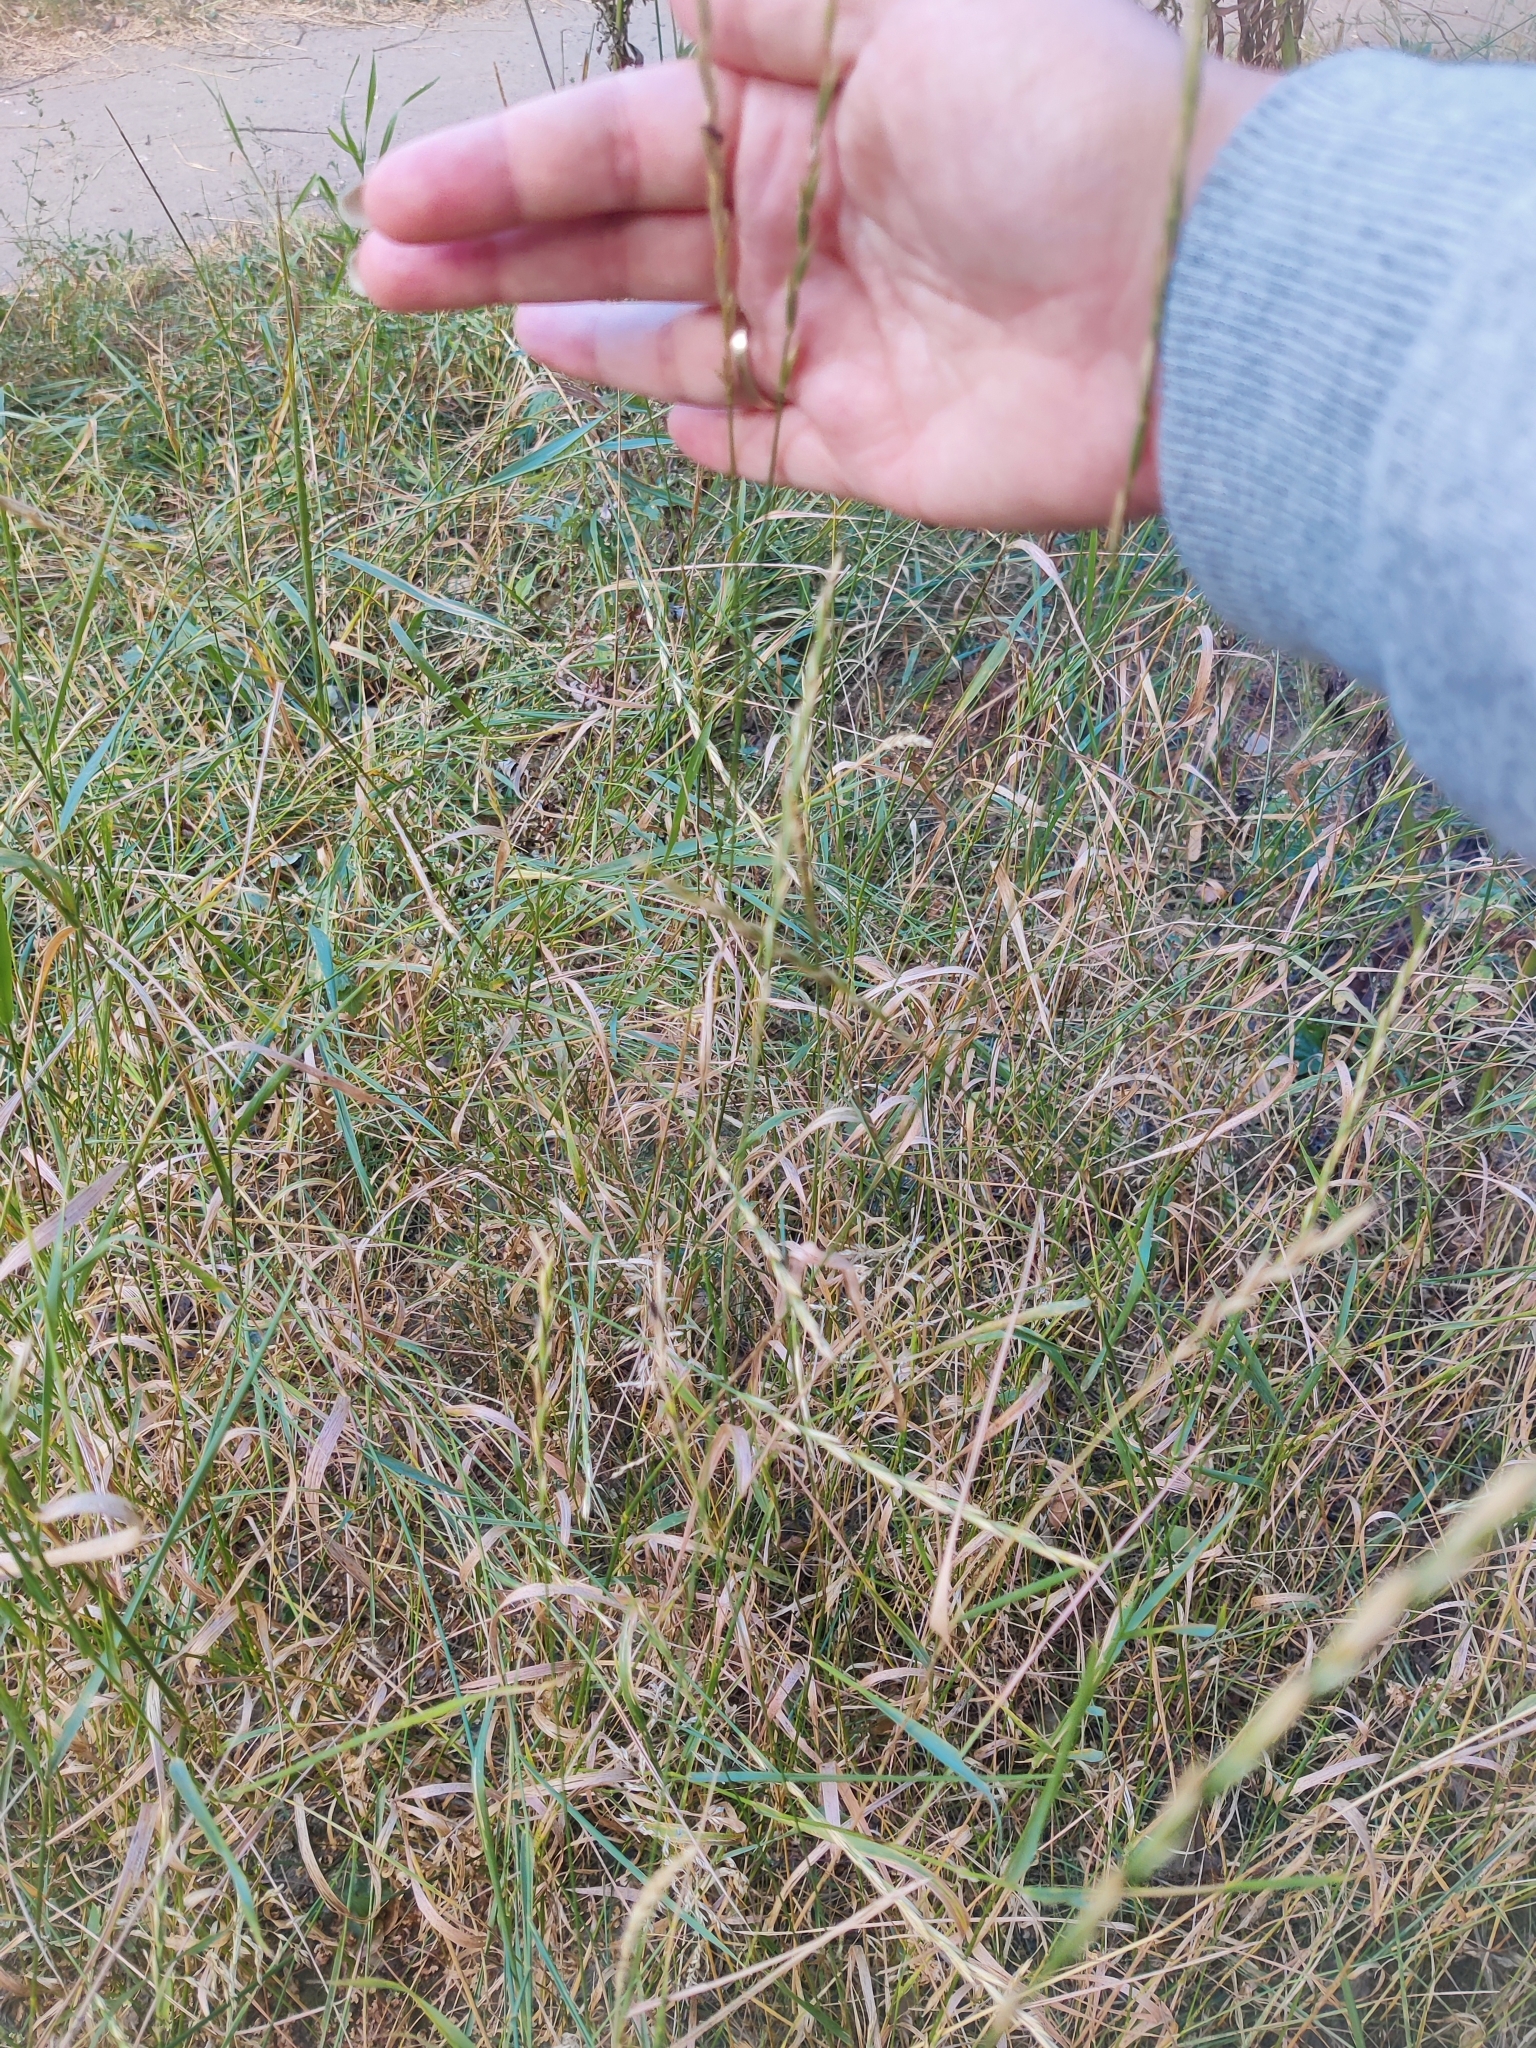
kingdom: Plantae
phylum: Tracheophyta
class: Liliopsida
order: Poales
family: Poaceae
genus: Elymus
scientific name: Elymus repens
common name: Quackgrass
